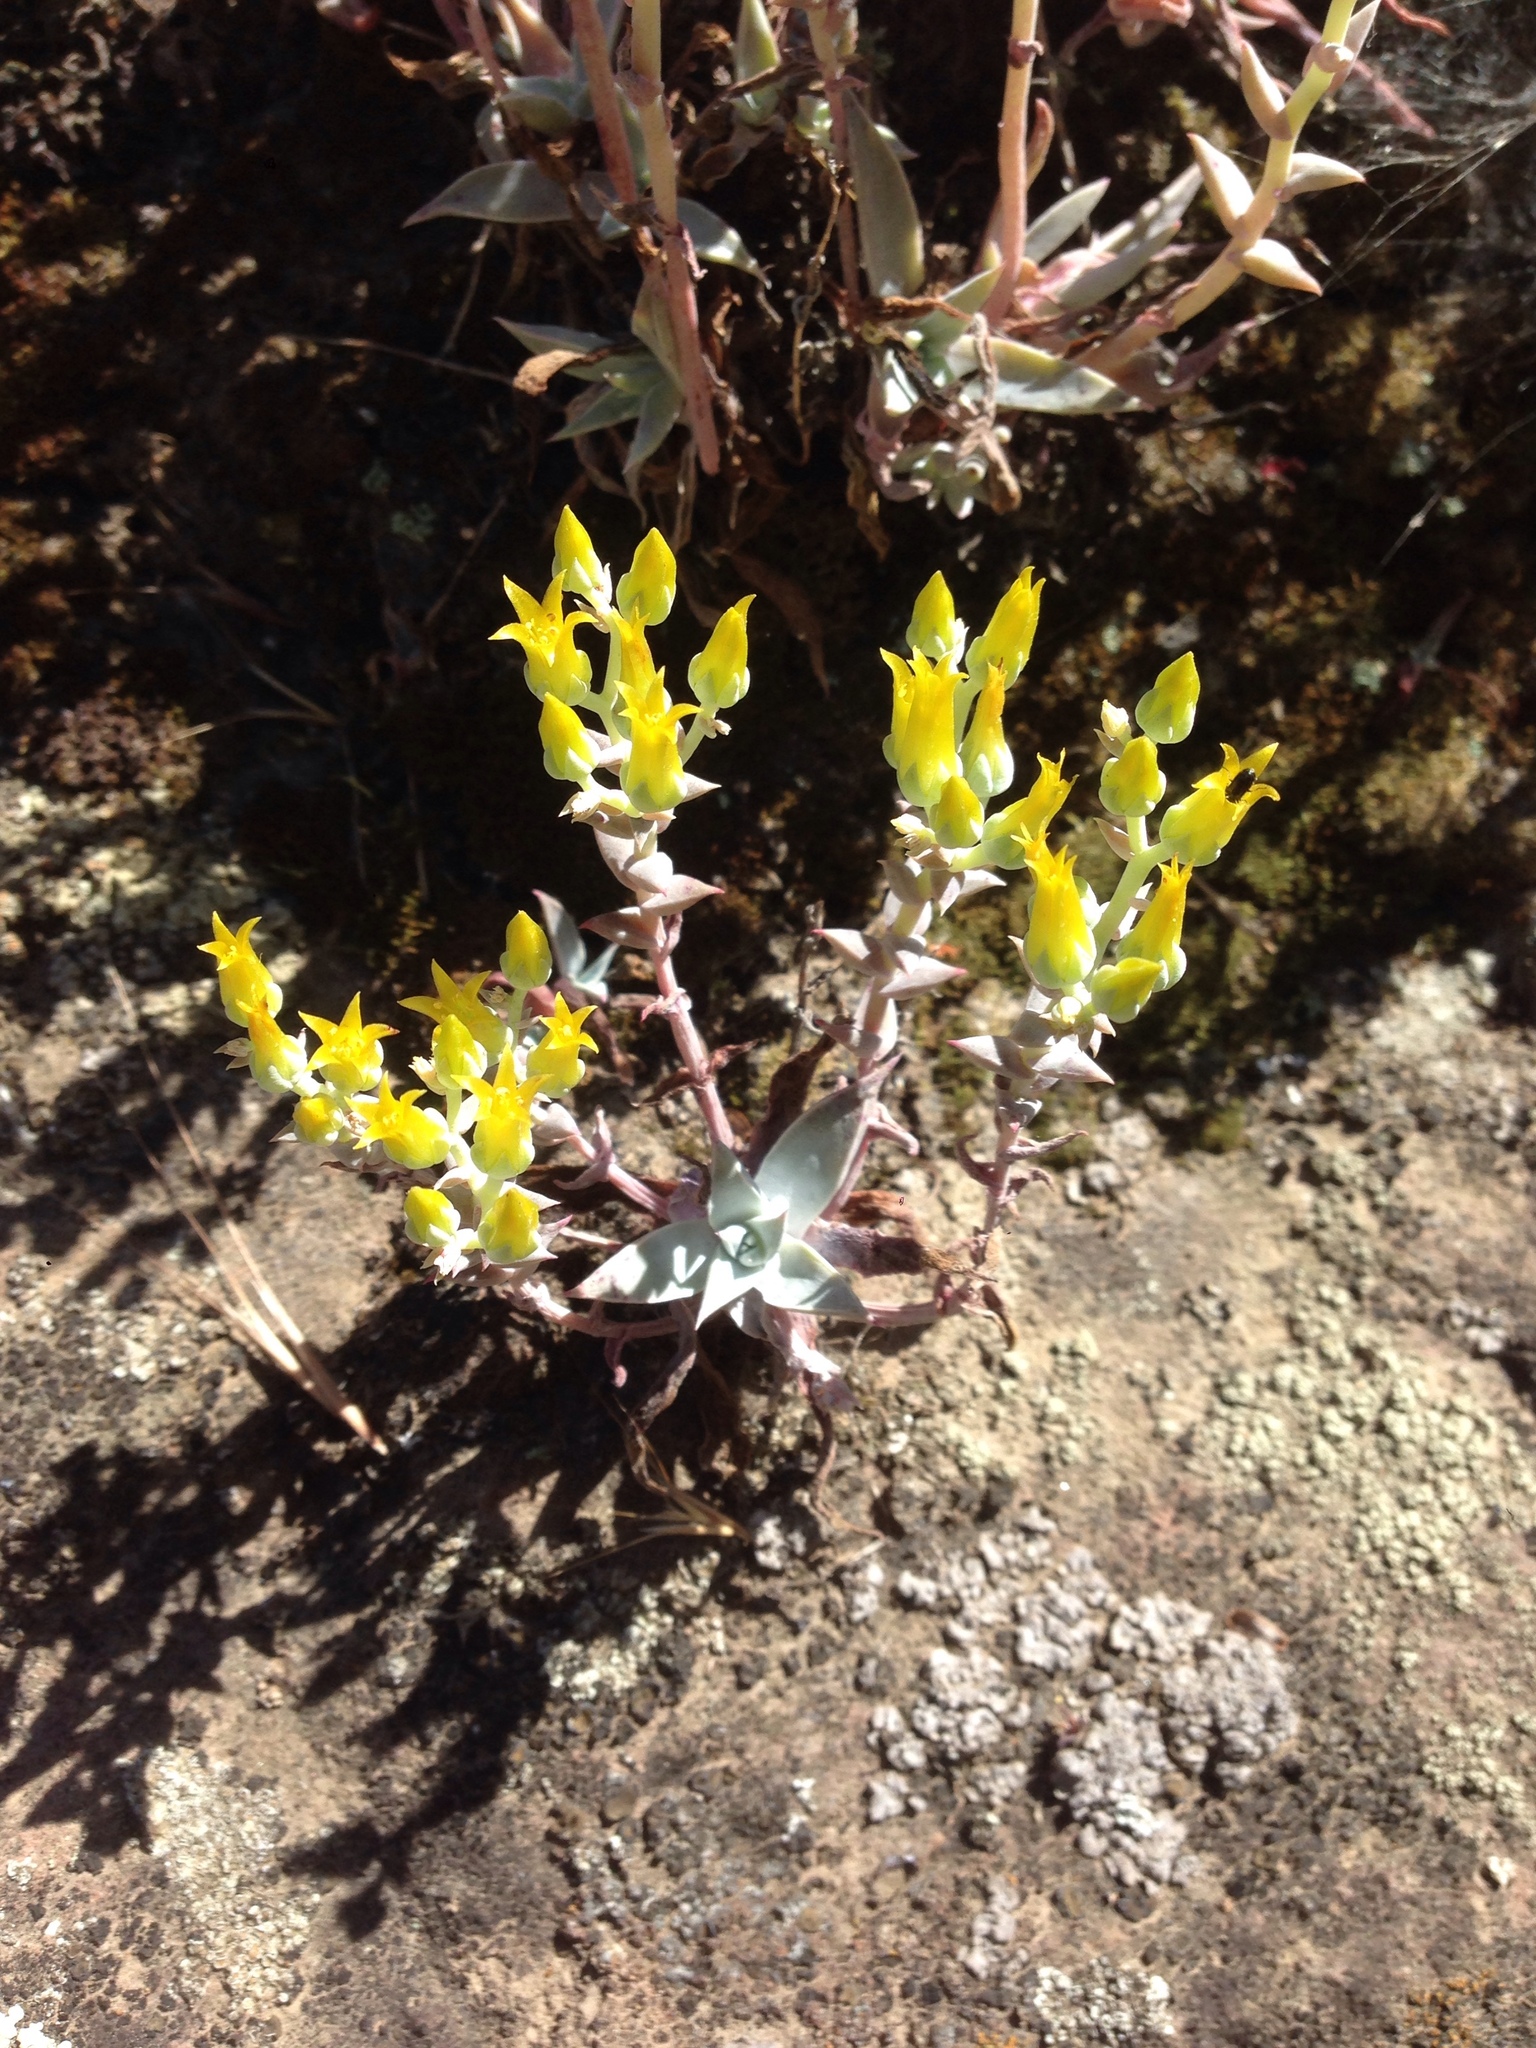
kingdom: Plantae
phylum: Tracheophyta
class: Magnoliopsida
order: Saxifragales
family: Crassulaceae
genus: Dudleya
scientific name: Dudleya verityi
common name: Verity dudleya
